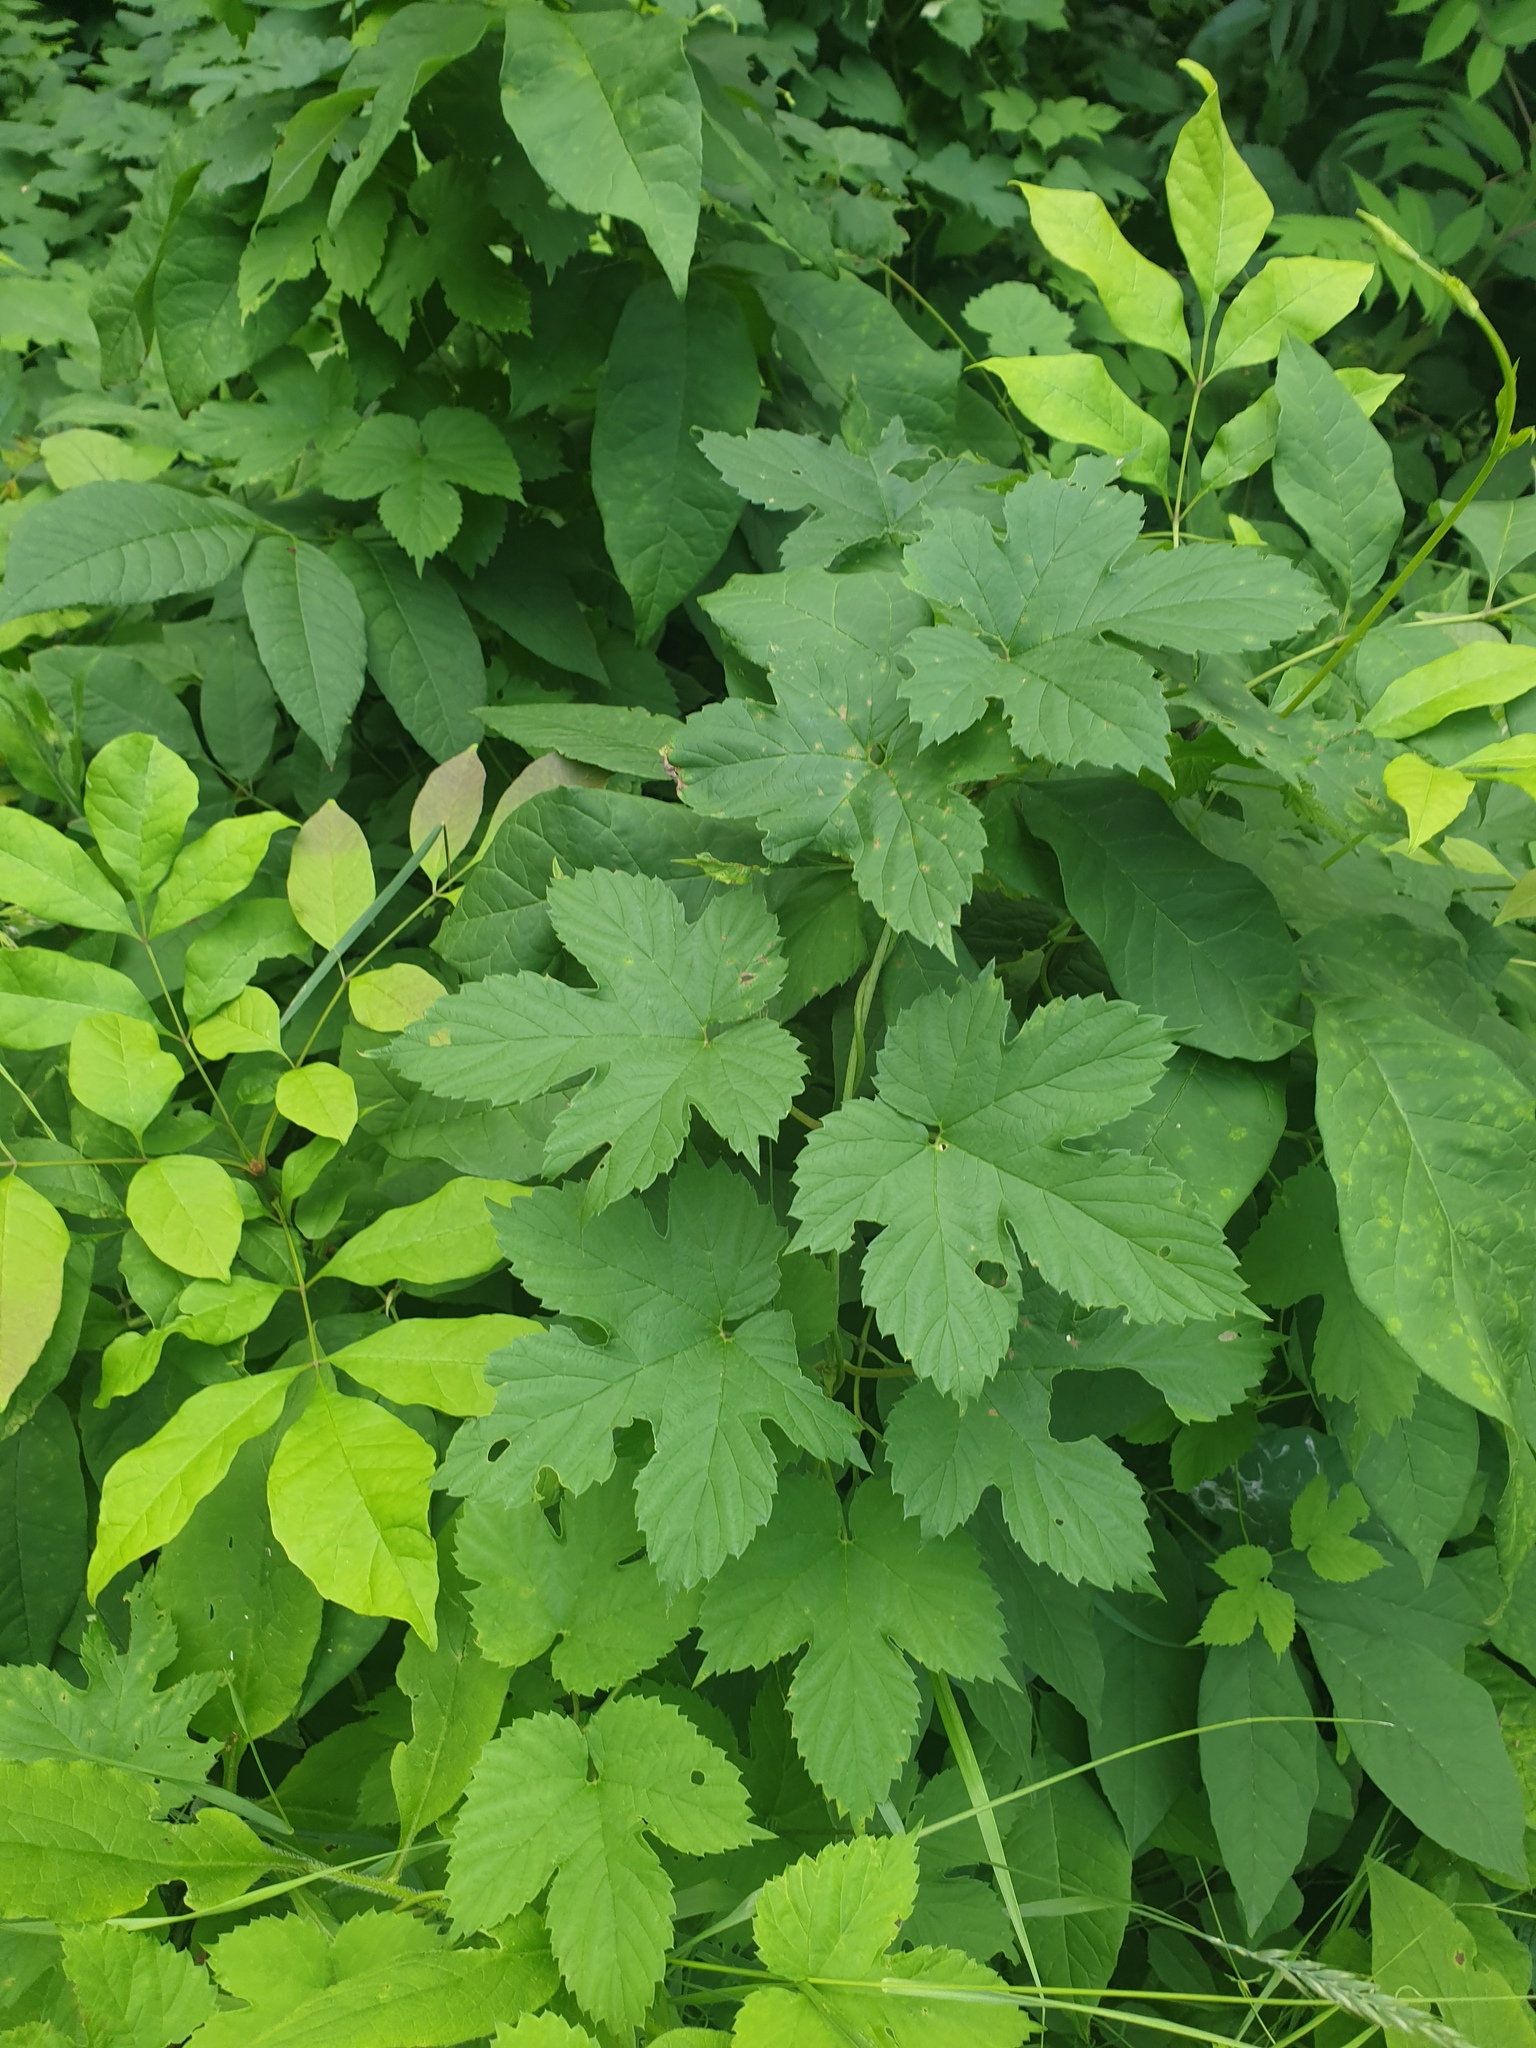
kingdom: Plantae
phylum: Tracheophyta
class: Magnoliopsida
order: Rosales
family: Cannabaceae
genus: Humulus
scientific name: Humulus lupulus
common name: Hop
